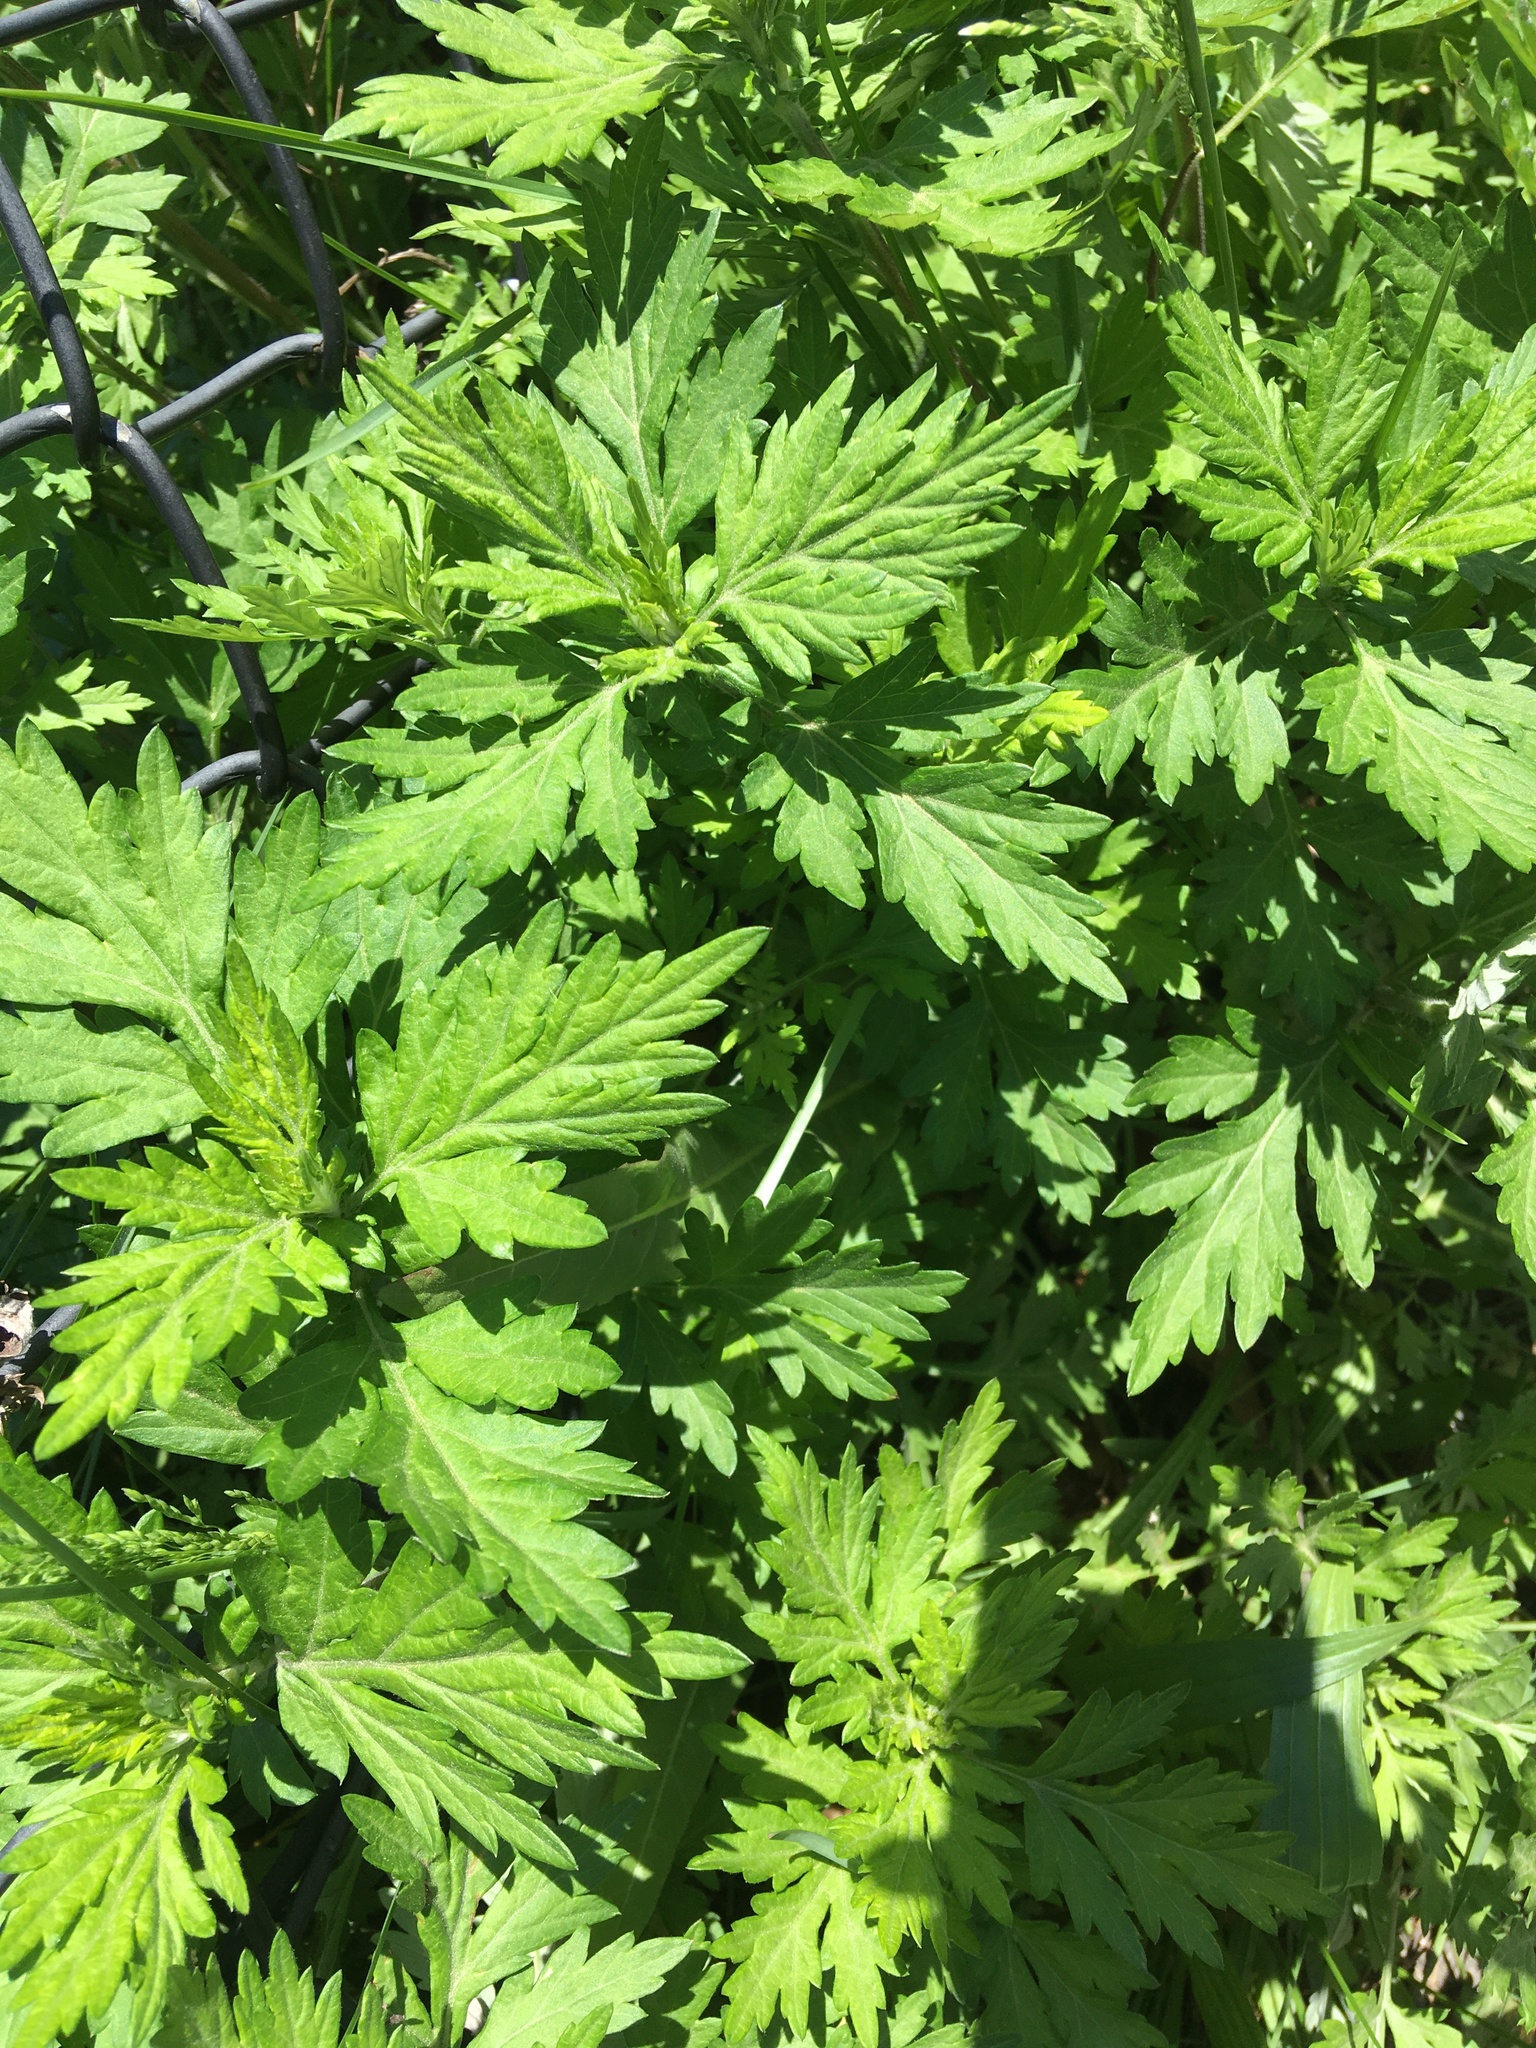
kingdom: Plantae
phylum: Tracheophyta
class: Magnoliopsida
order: Asterales
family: Asteraceae
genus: Artemisia
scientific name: Artemisia vulgaris
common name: Mugwort
